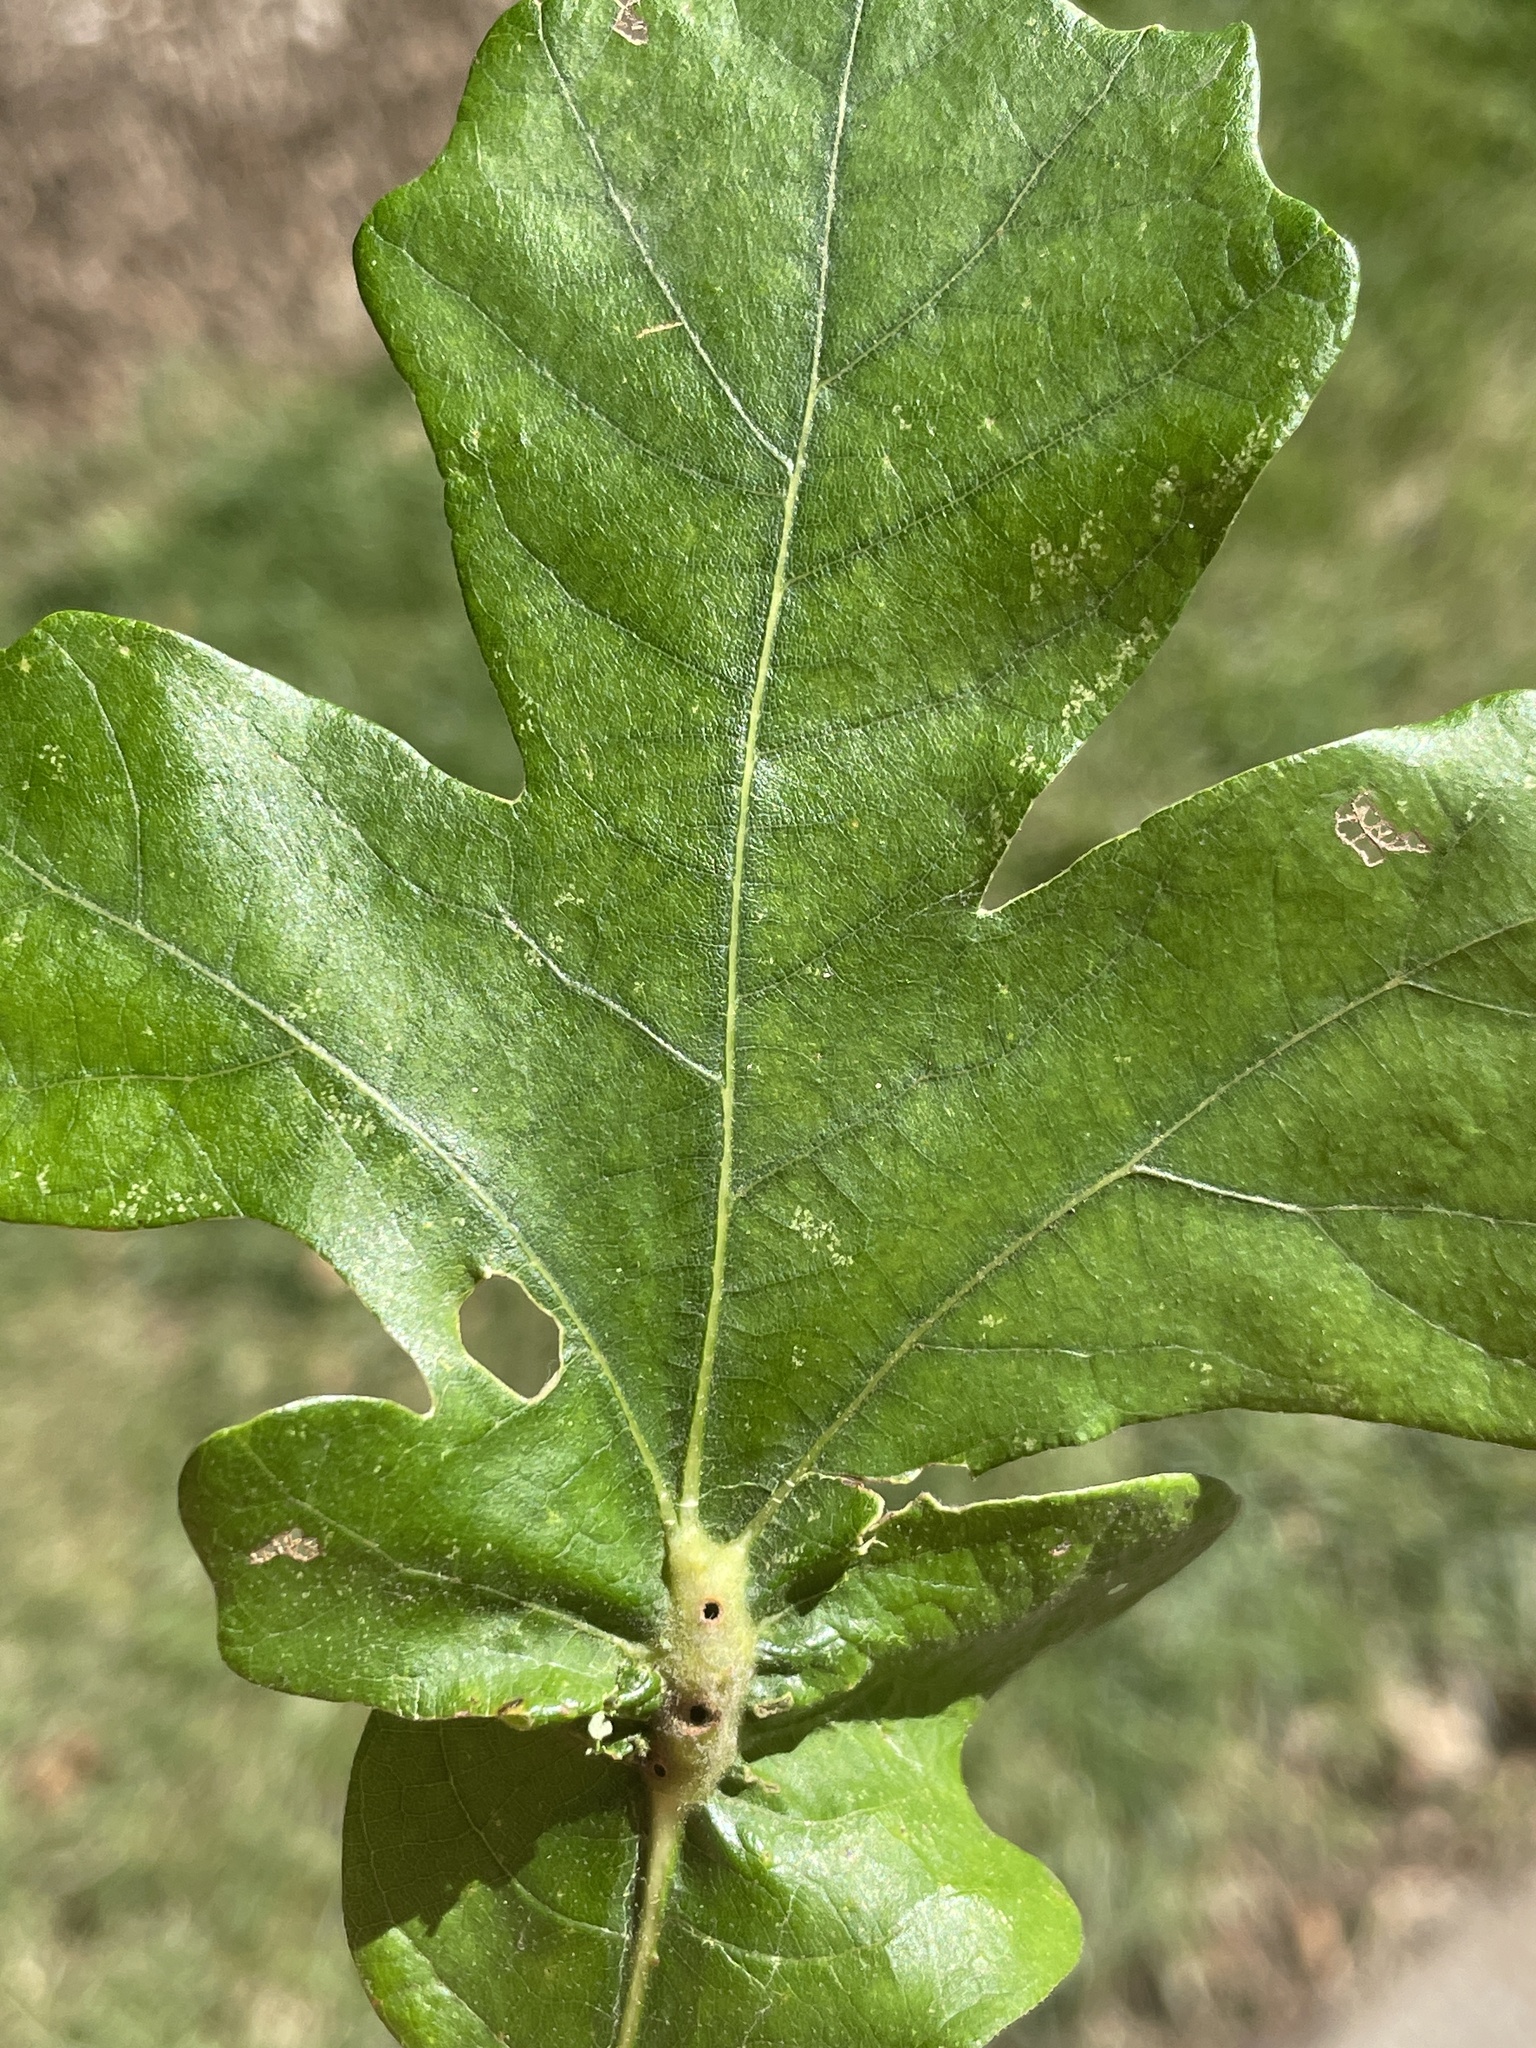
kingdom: Animalia
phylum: Arthropoda
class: Insecta
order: Hymenoptera
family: Cynipidae
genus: Bassettia
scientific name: Bassettia flavipes
